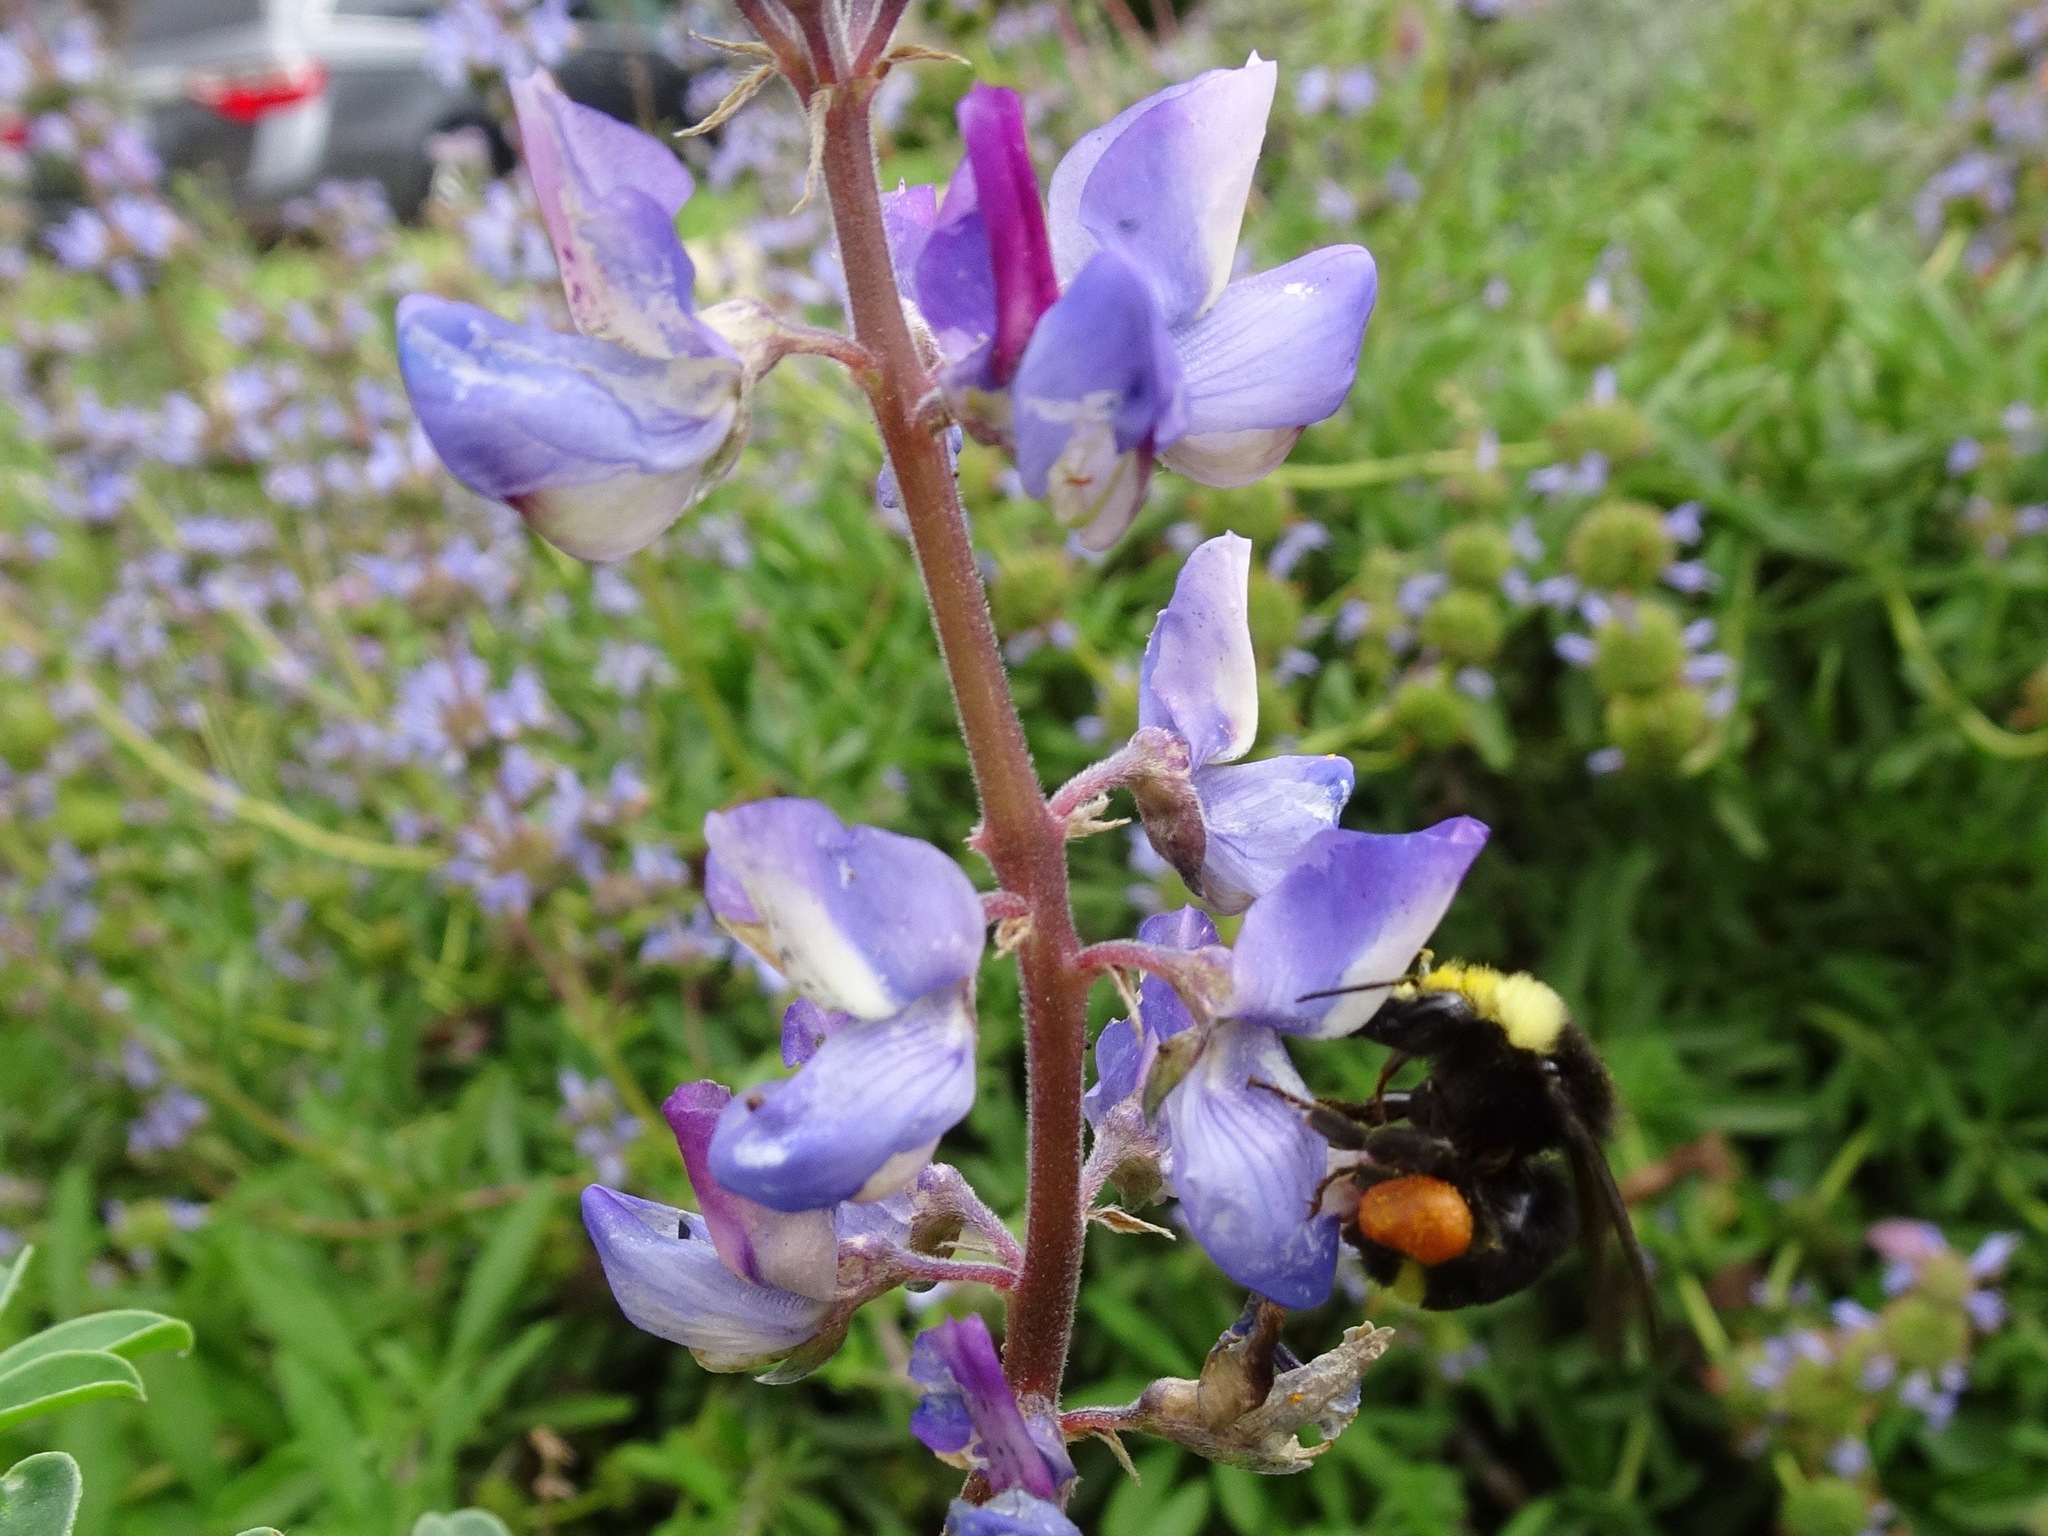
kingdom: Animalia
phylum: Arthropoda
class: Insecta
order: Hymenoptera
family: Apidae
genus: Bombus
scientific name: Bombus vosnesenskii
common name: Vosnesensky bumble bee
